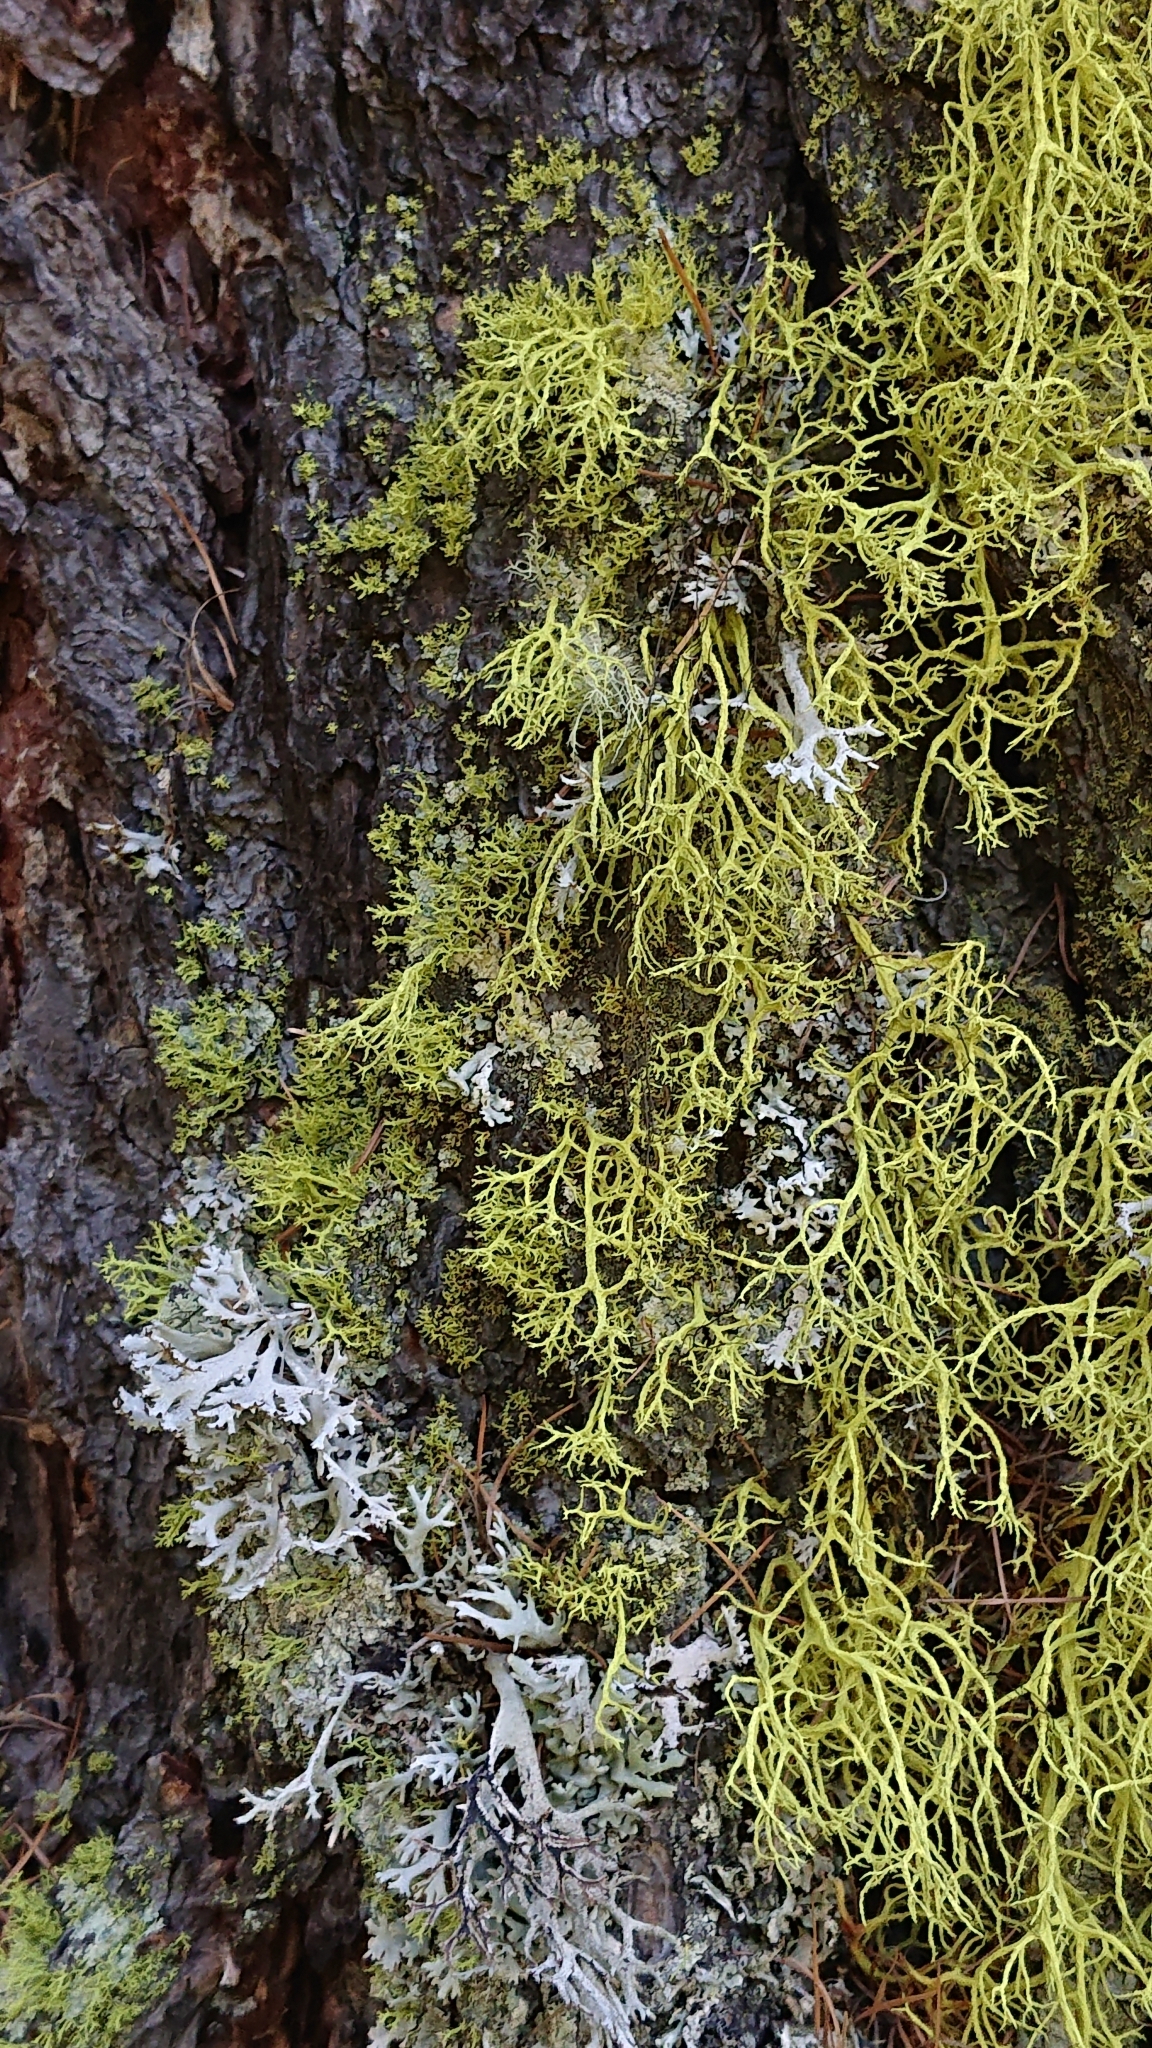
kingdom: Fungi
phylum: Ascomycota
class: Lecanoromycetes
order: Lecanorales
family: Parmeliaceae
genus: Letharia
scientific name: Letharia vulpina
